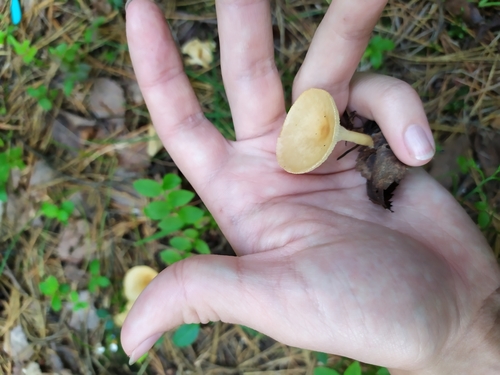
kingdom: Fungi
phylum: Basidiomycota
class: Agaricomycetes
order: Agaricales
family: Tricholomataceae
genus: Infundibulicybe
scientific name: Infundibulicybe gibba
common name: Common funnel
